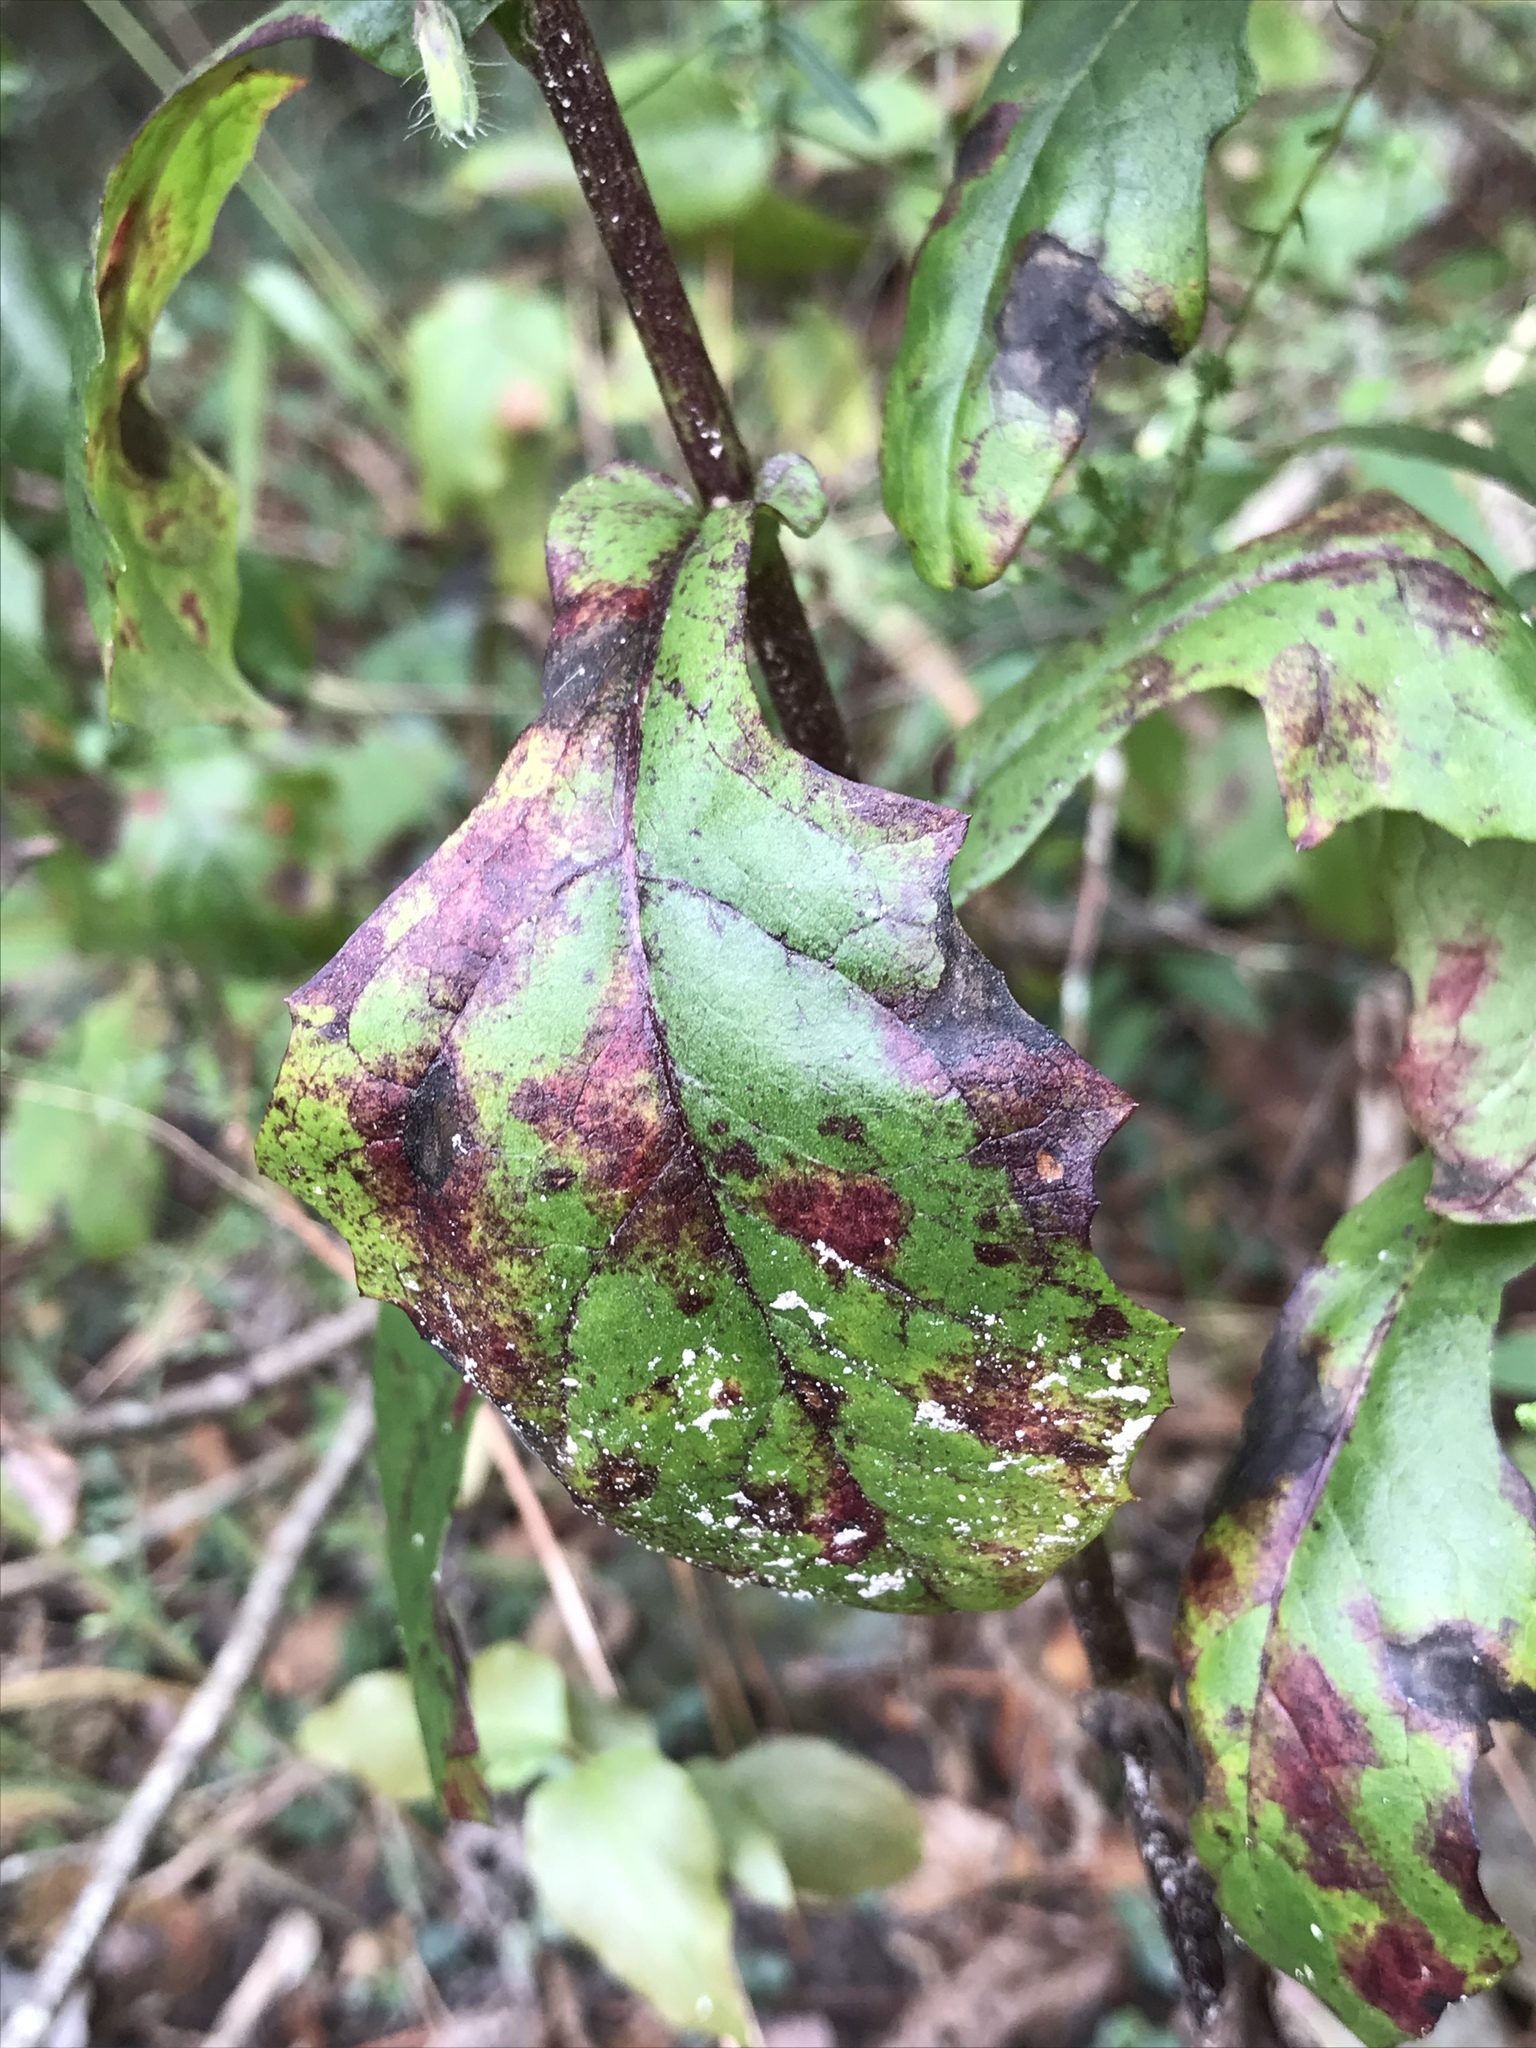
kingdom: Plantae
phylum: Tracheophyta
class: Magnoliopsida
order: Asterales
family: Asteraceae
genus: Nabalus
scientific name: Nabalus barbata
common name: Barbed rattlesnakeroot
